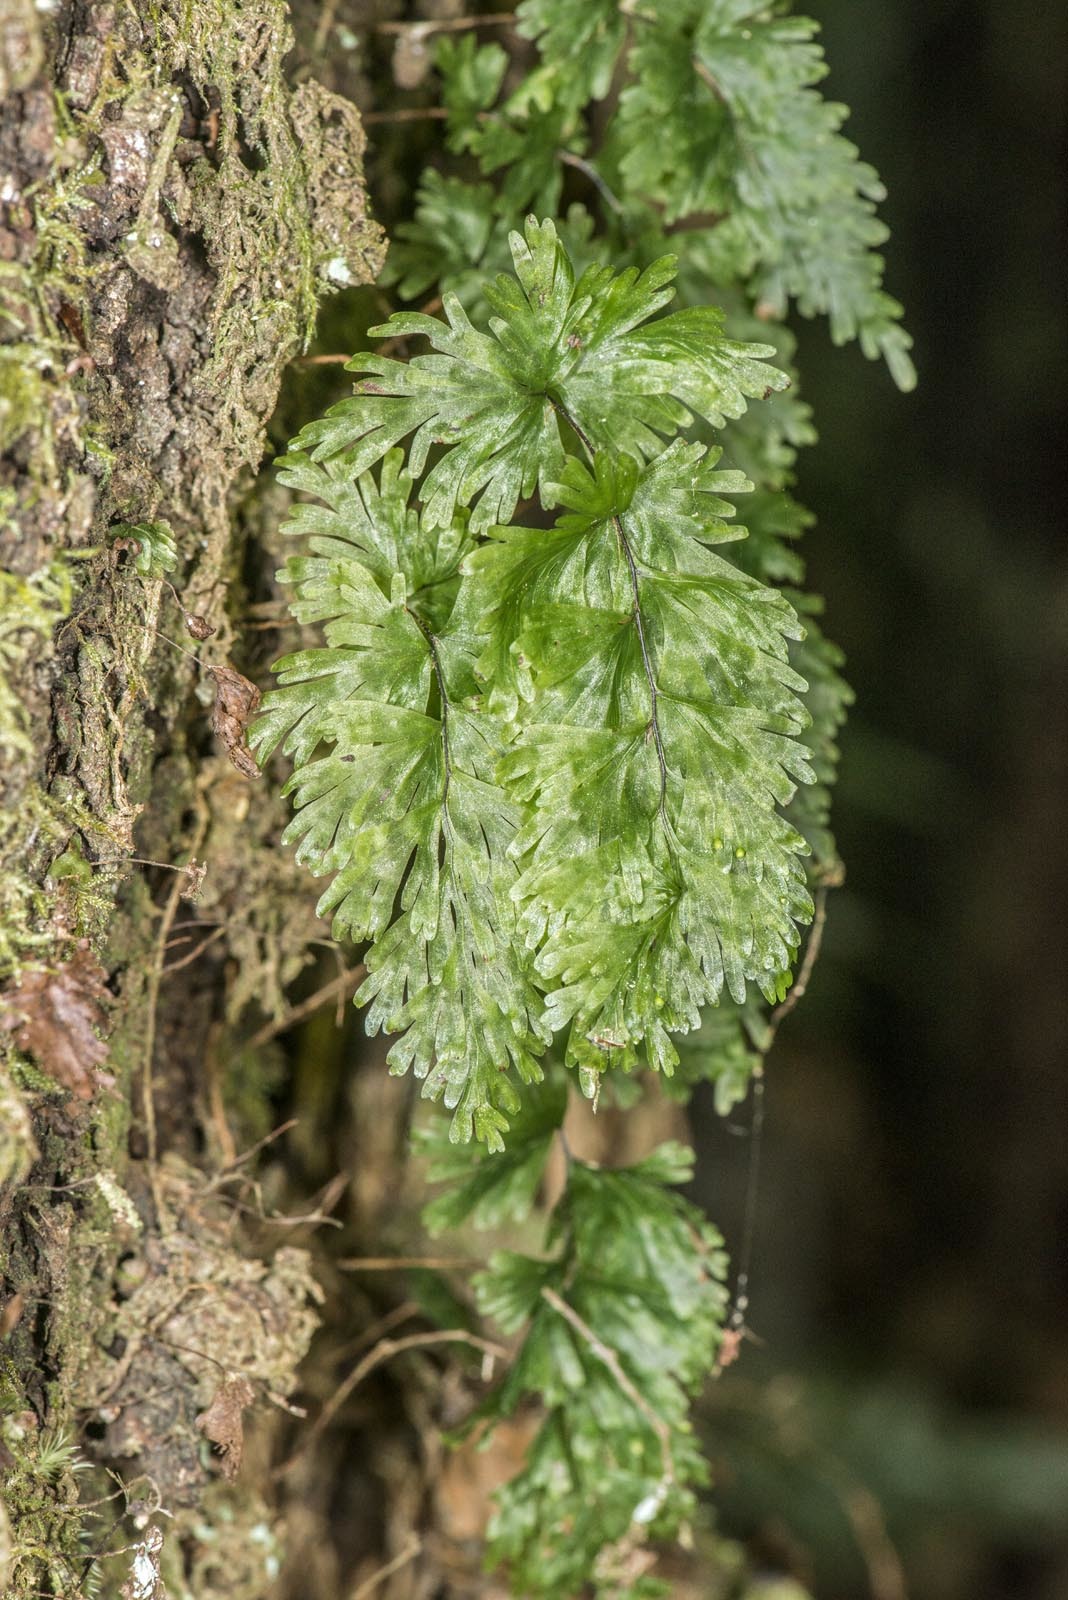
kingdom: Plantae
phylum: Tracheophyta
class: Polypodiopsida
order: Hymenophyllales
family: Hymenophyllaceae
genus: Hymenophyllum
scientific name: Hymenophyllum flabellatum
